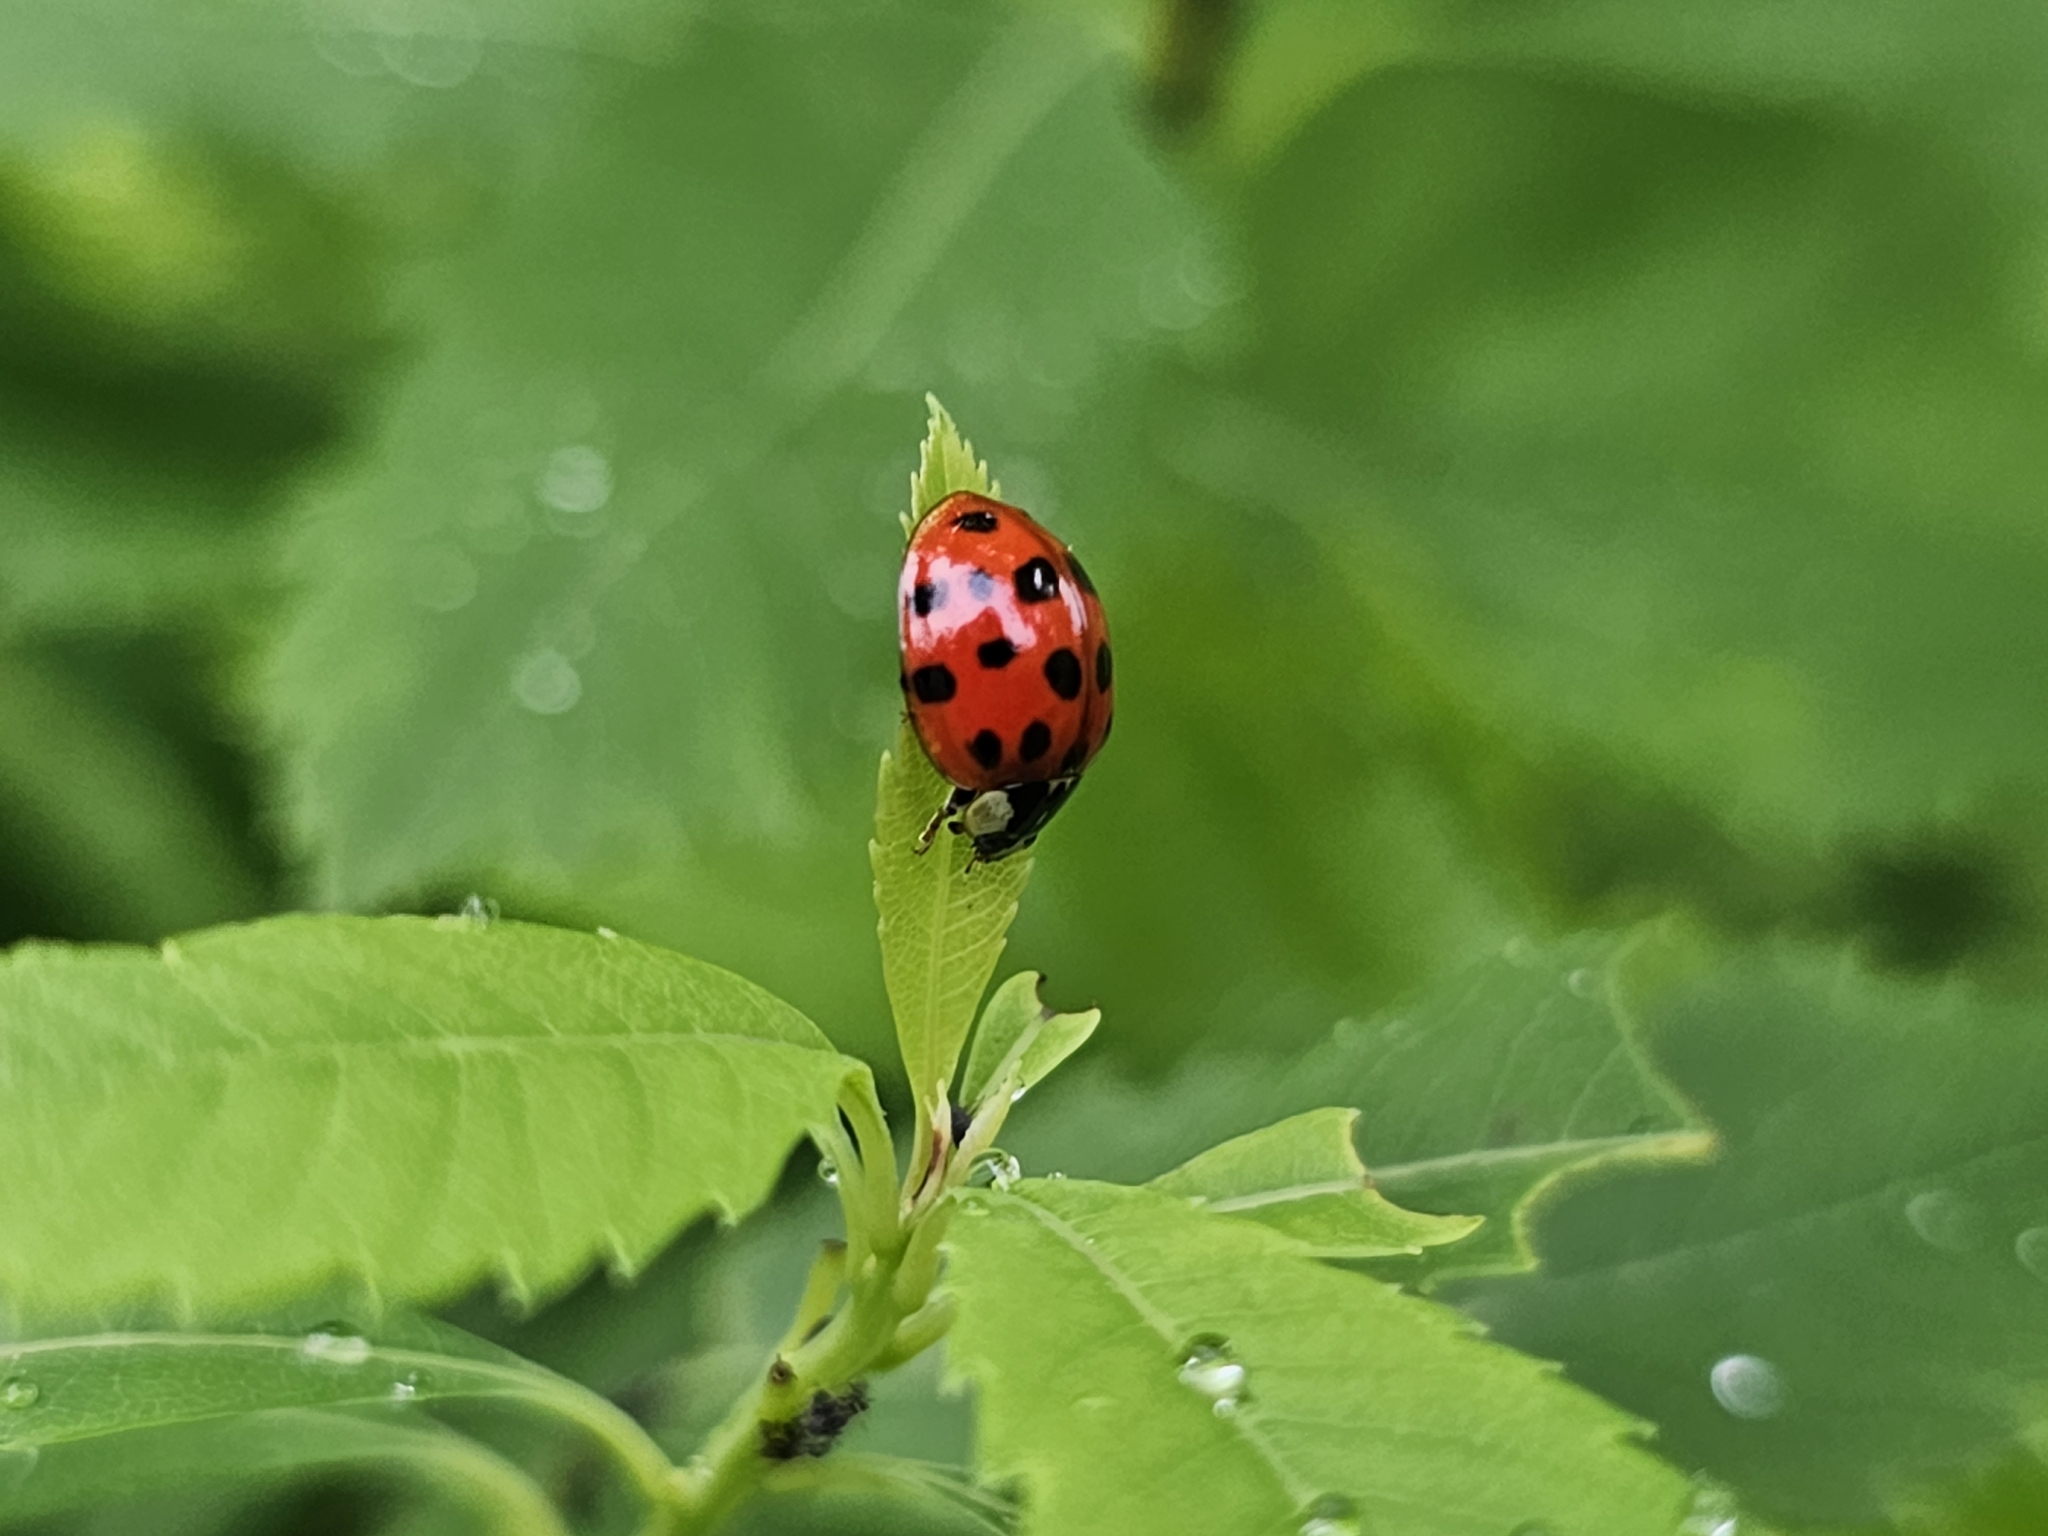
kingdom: Animalia
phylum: Arthropoda
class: Insecta
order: Coleoptera
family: Coccinellidae
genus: Harmonia
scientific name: Harmonia axyridis
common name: Harlequin ladybird
